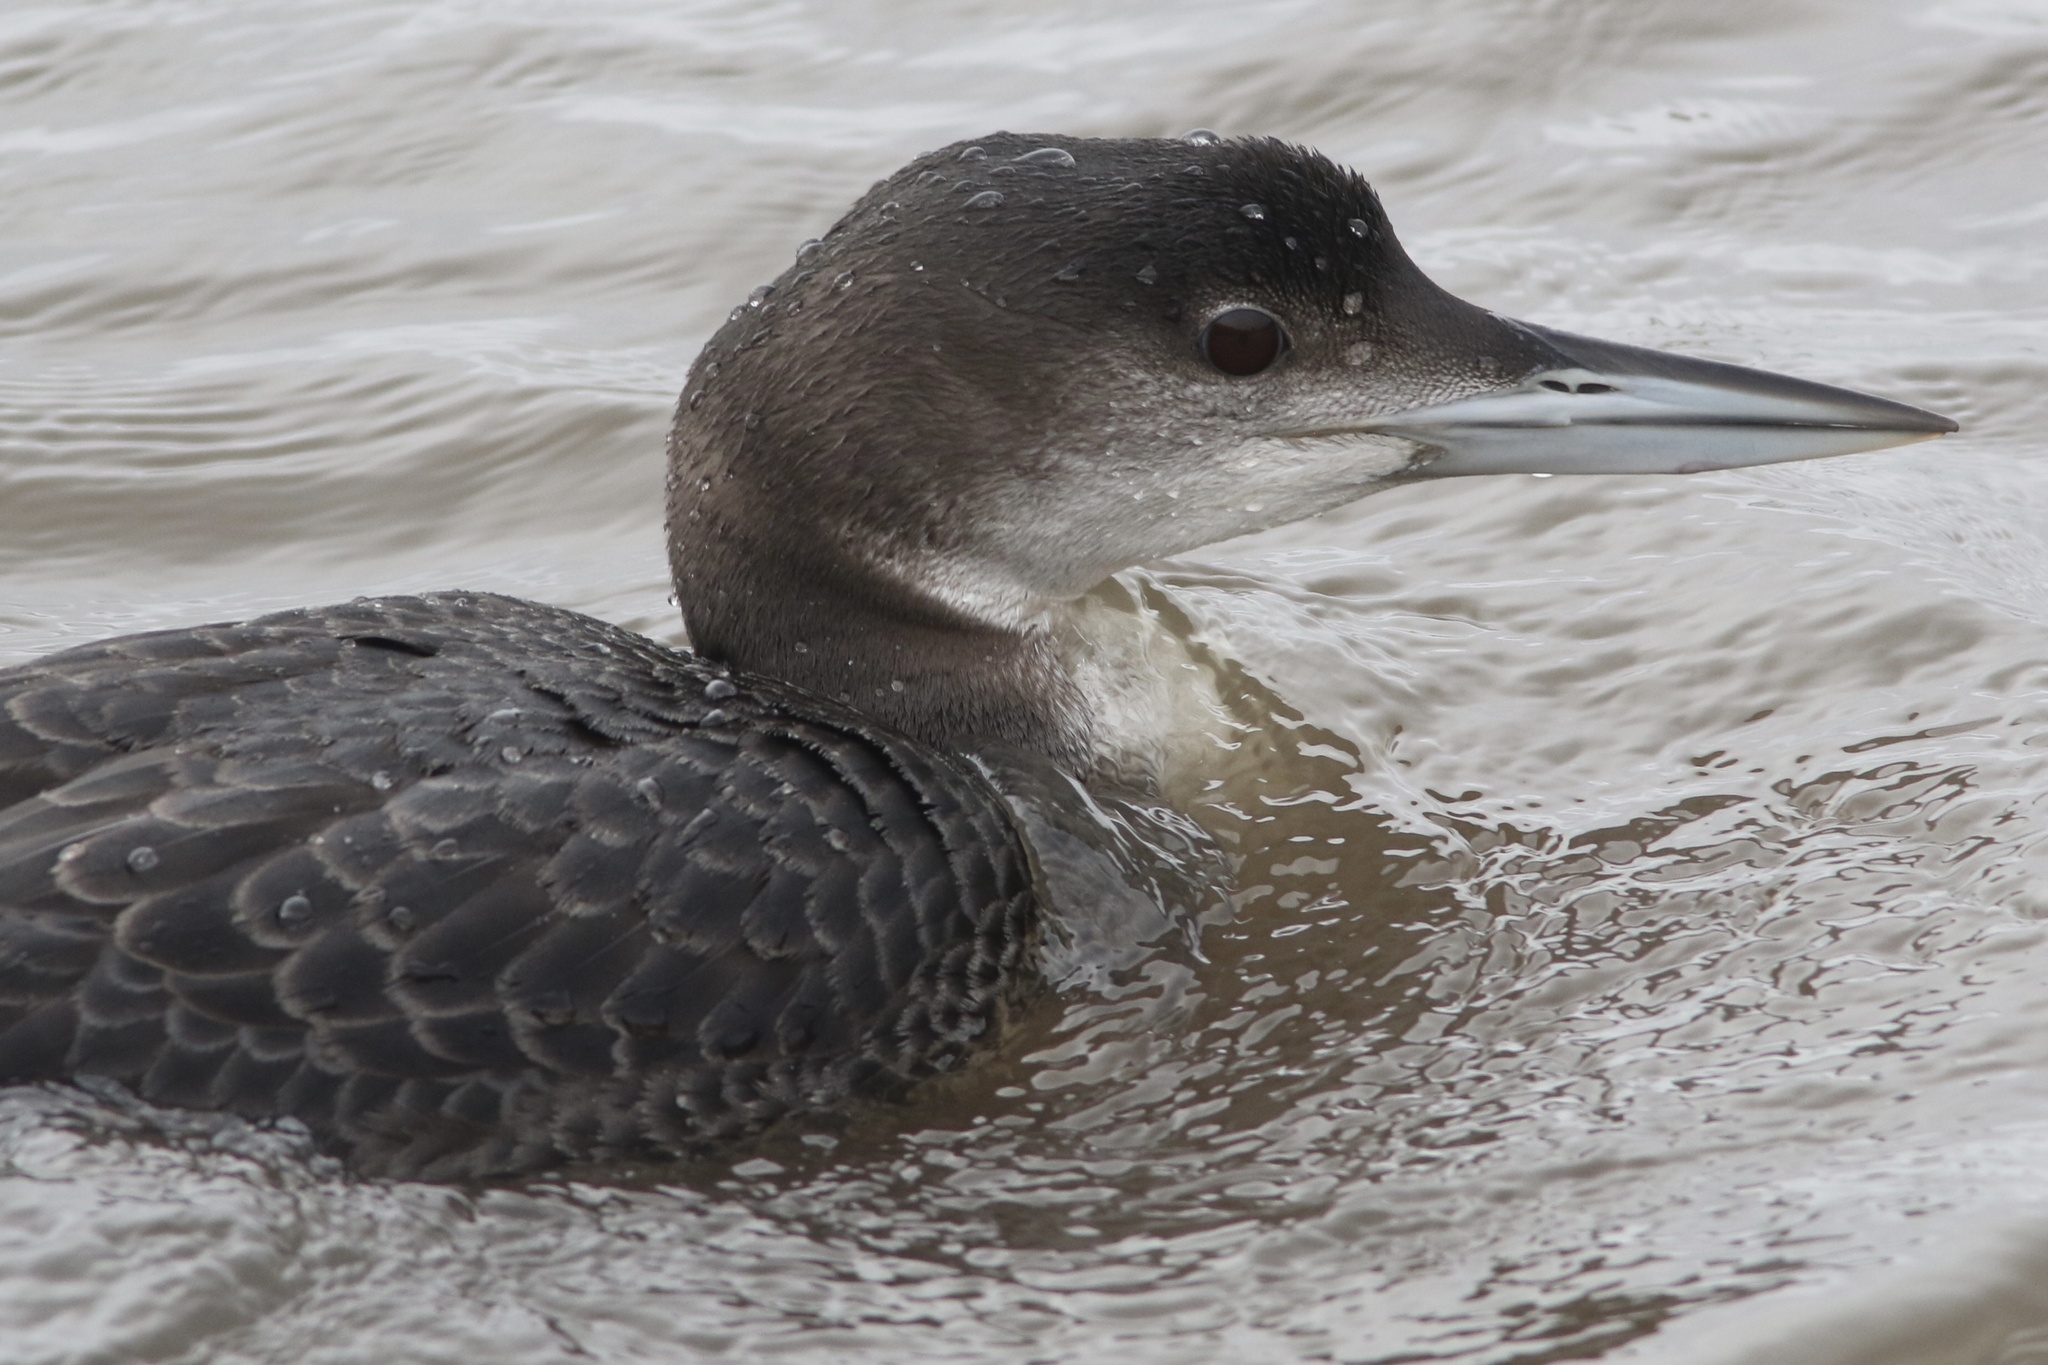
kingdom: Animalia
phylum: Chordata
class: Aves
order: Gaviiformes
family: Gaviidae
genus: Gavia
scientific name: Gavia immer
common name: Common loon
